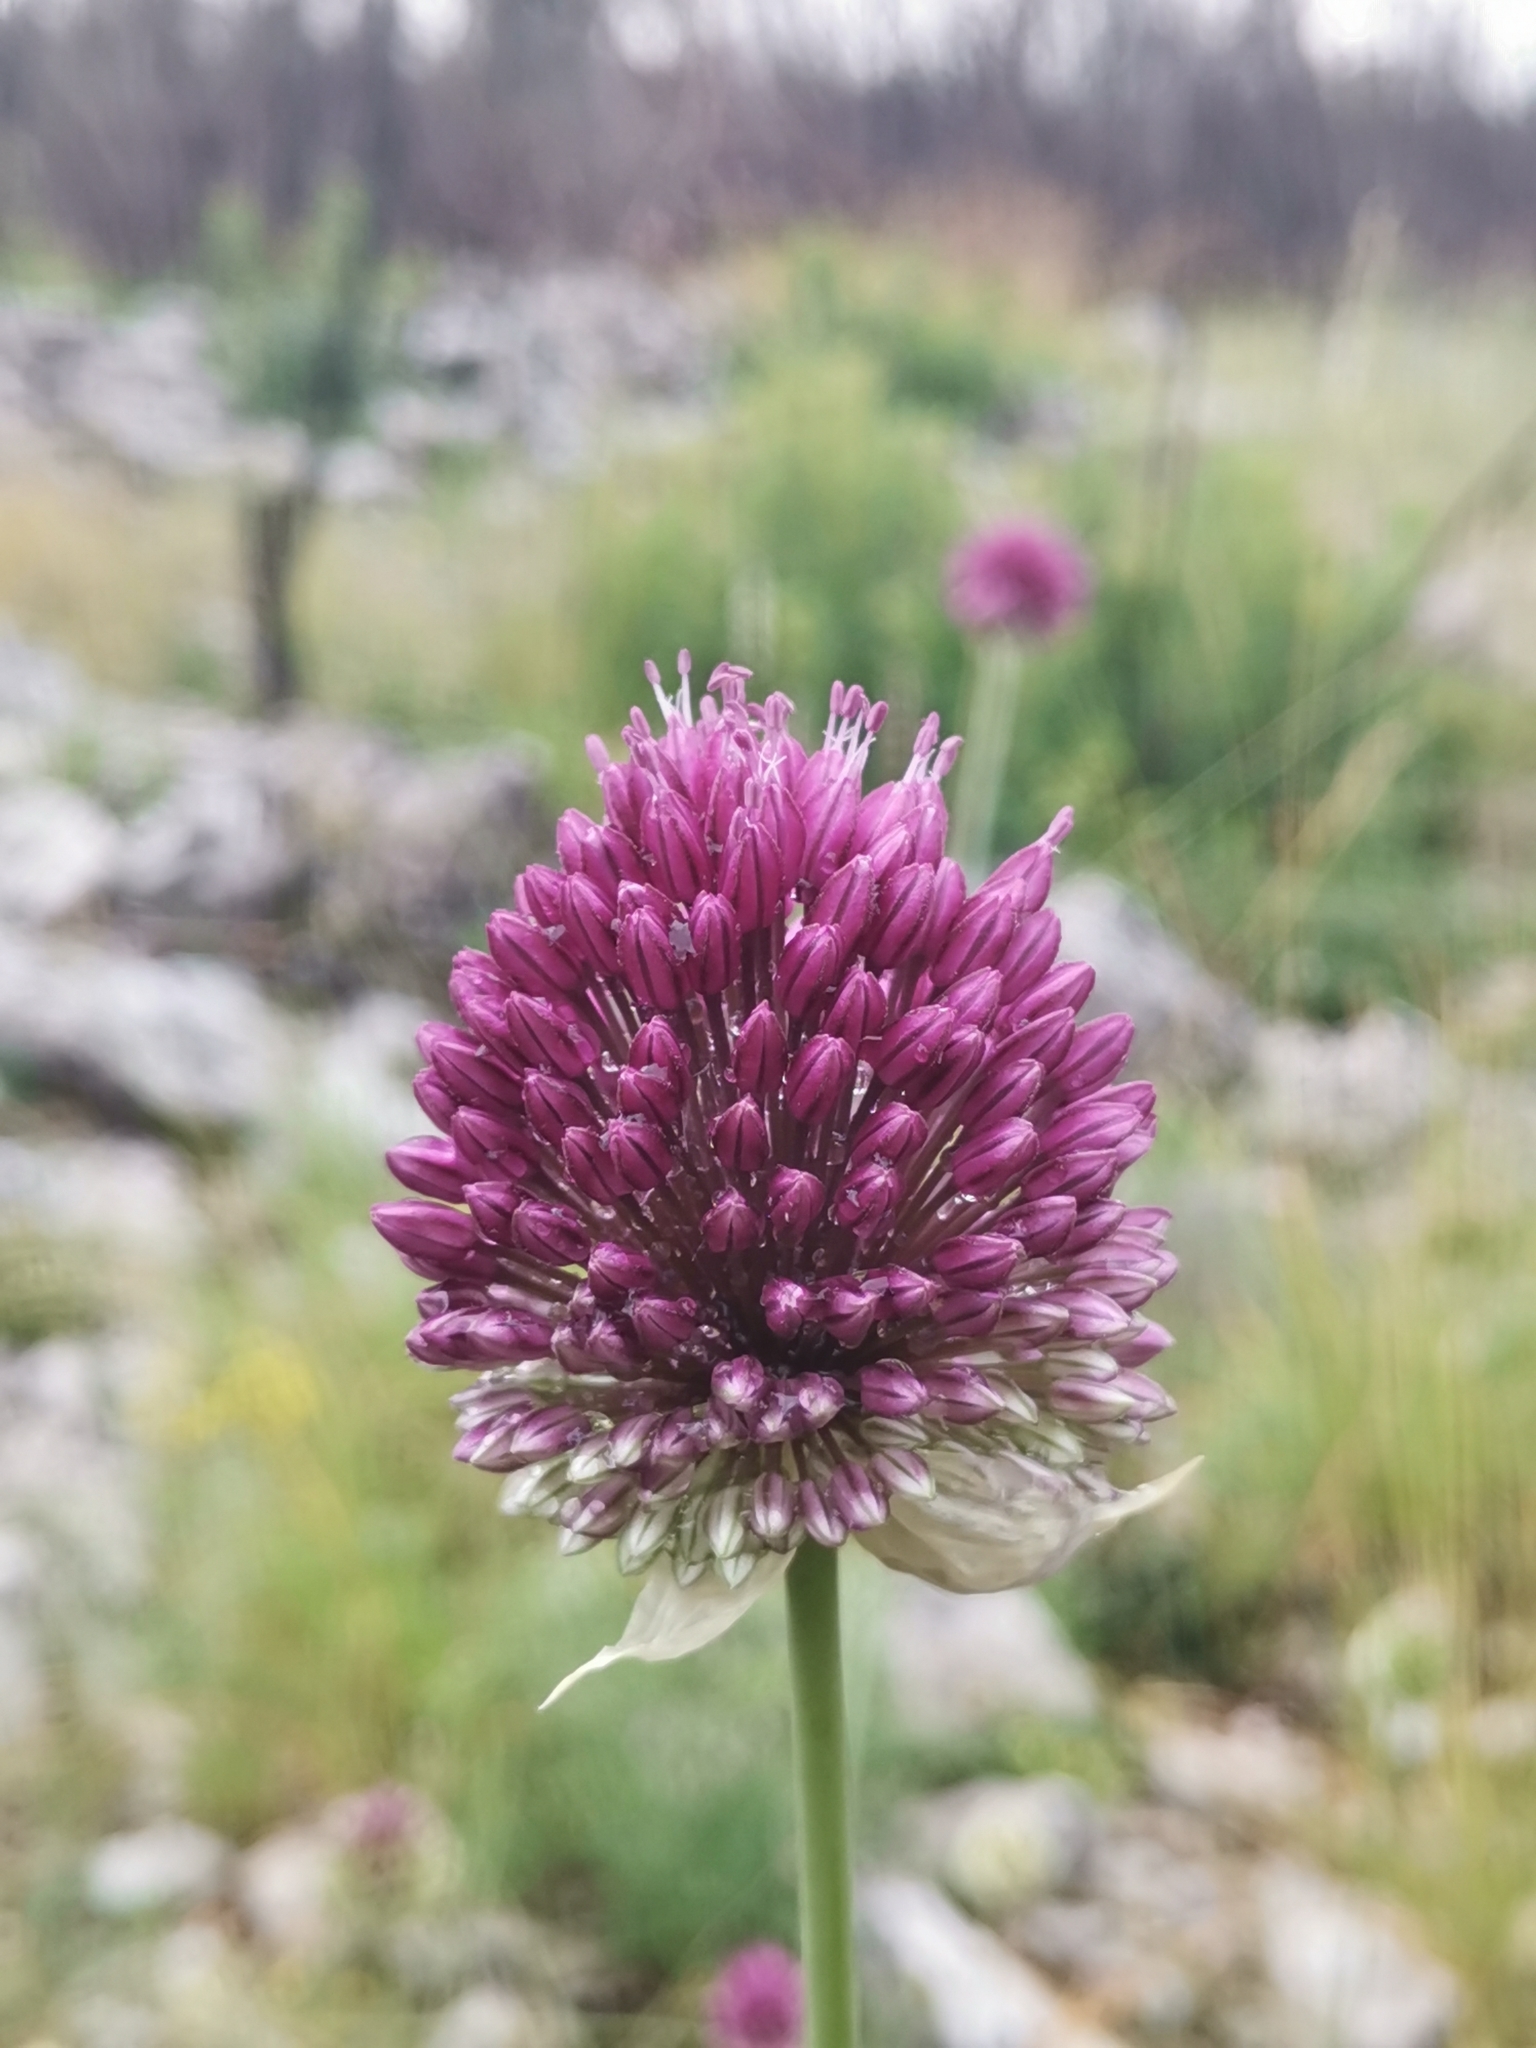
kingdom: Plantae
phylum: Tracheophyta
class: Liliopsida
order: Asparagales
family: Amaryllidaceae
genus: Allium
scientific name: Allium sphaerocephalon
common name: Round-headed leek
